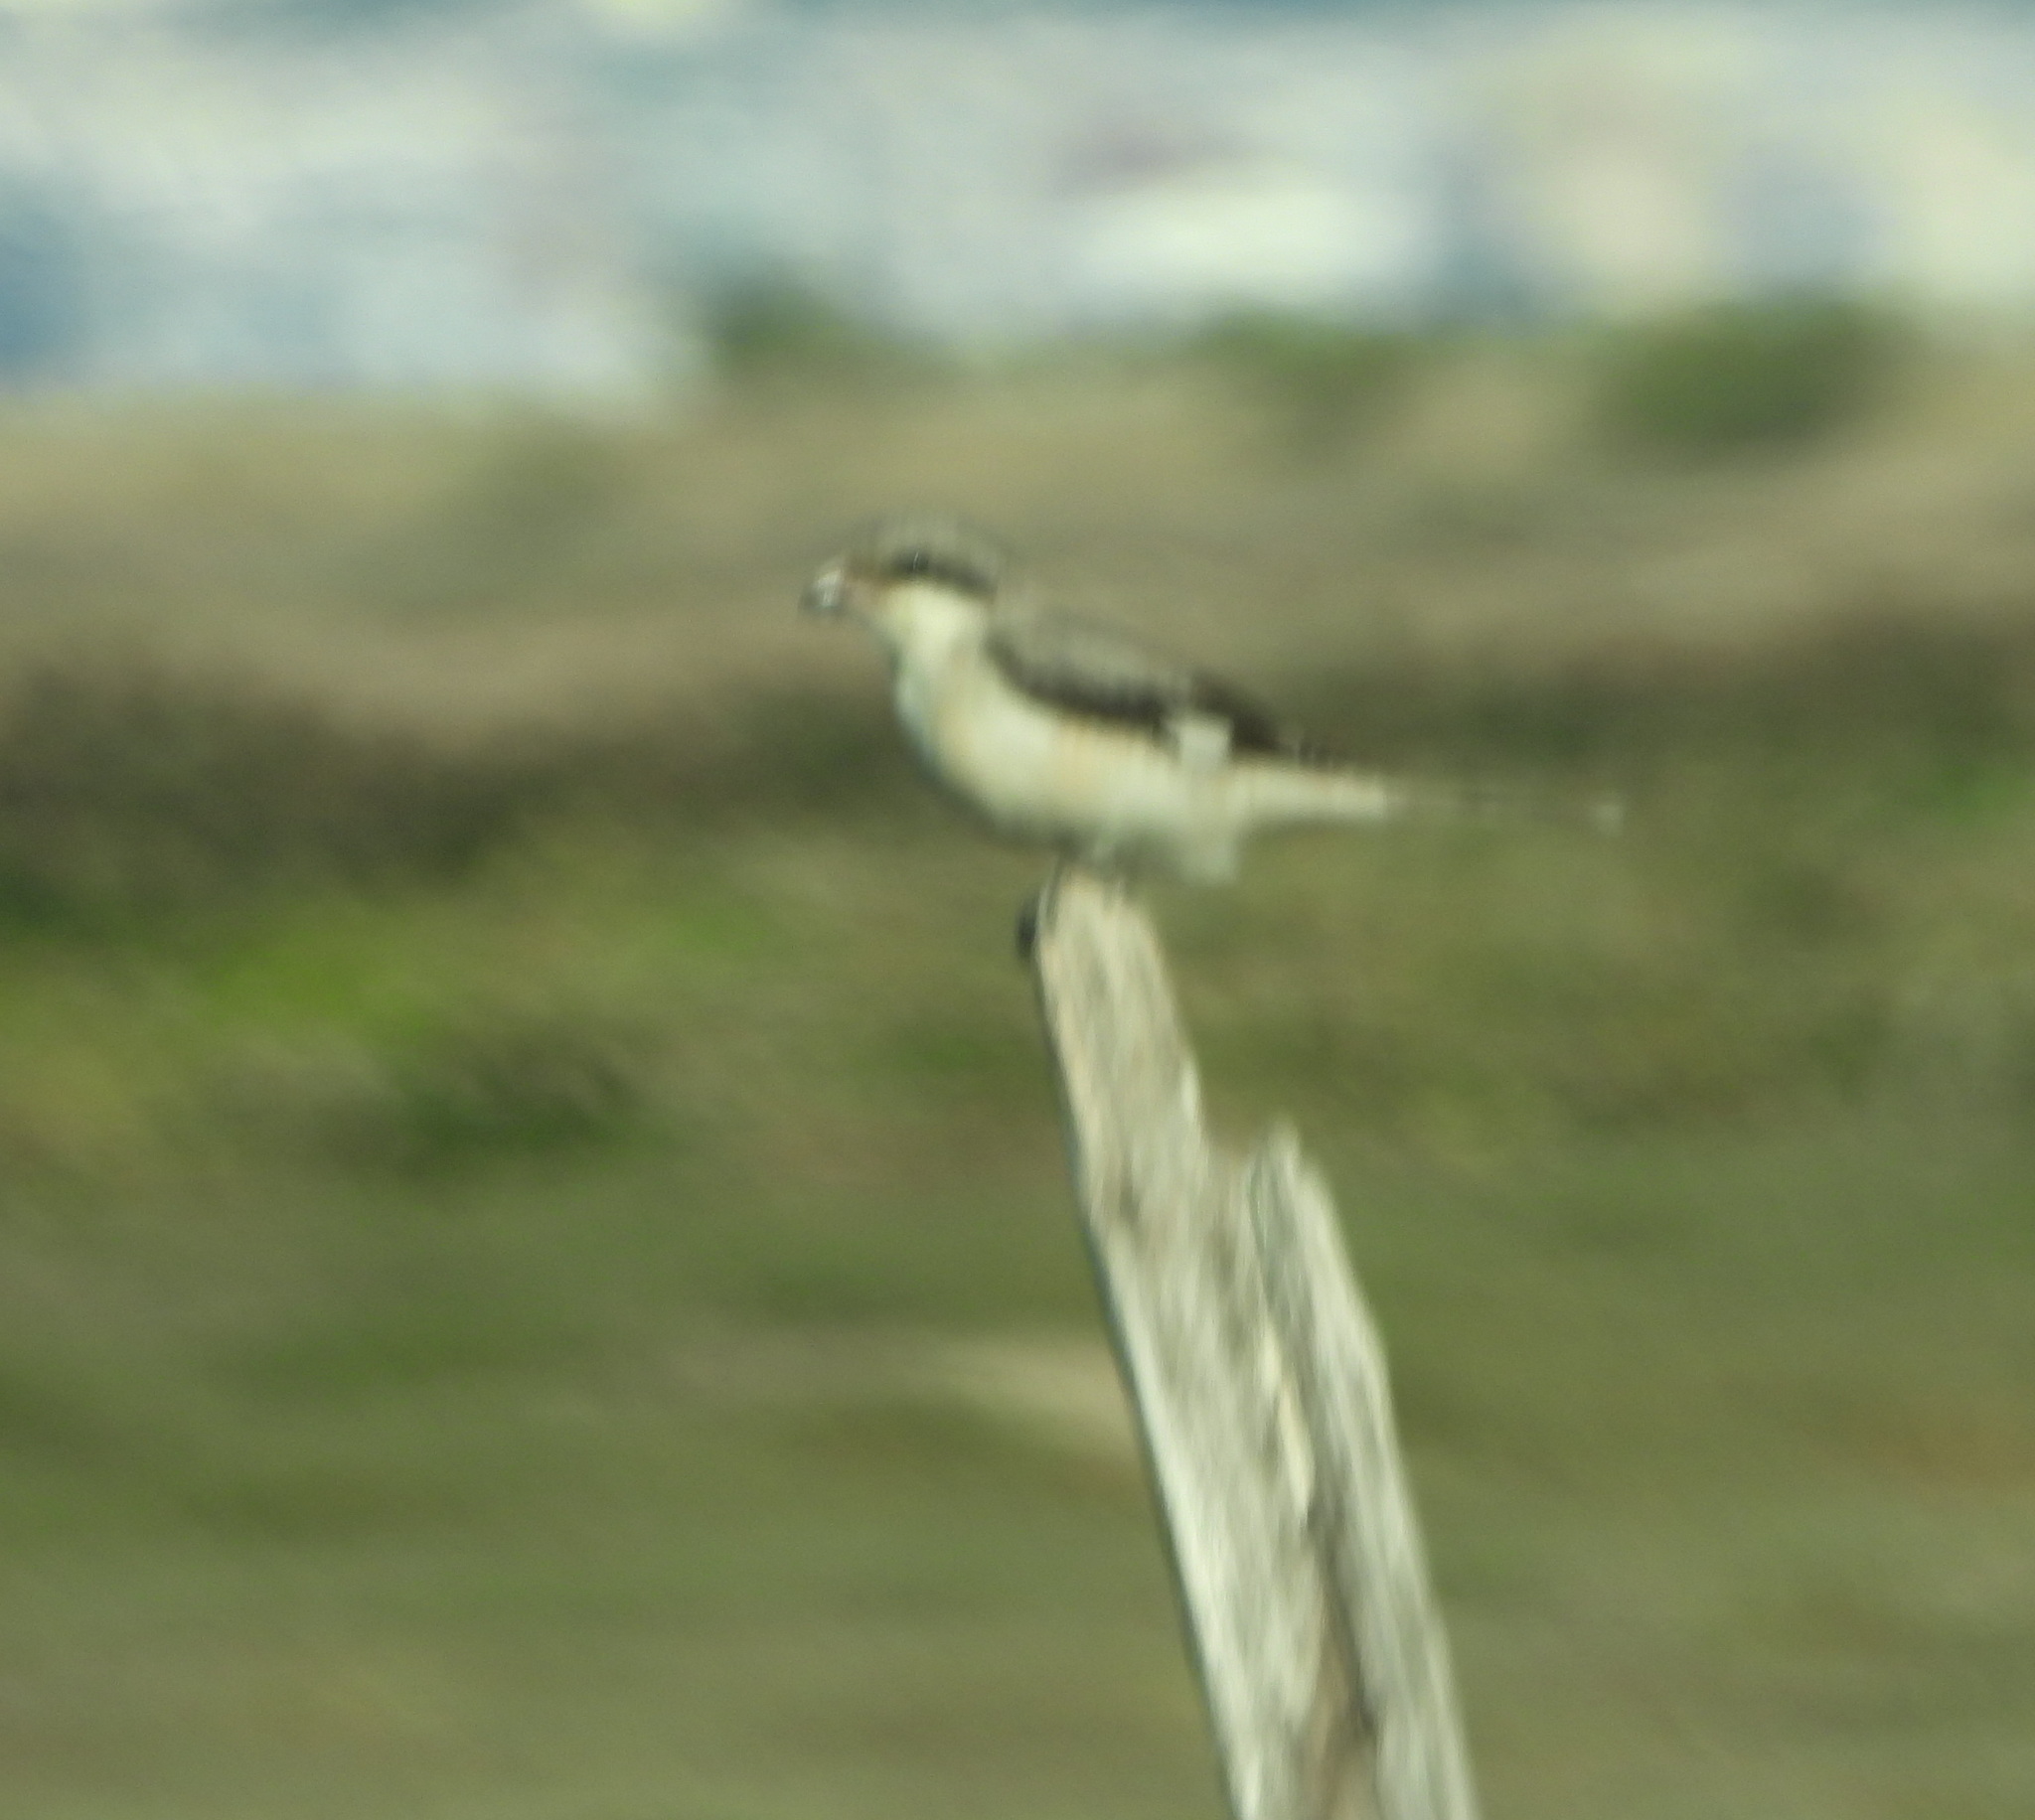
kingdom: Animalia
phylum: Chordata
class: Aves
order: Passeriformes
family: Laniidae
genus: Lanius
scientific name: Lanius minor
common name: Lesser grey shrike
